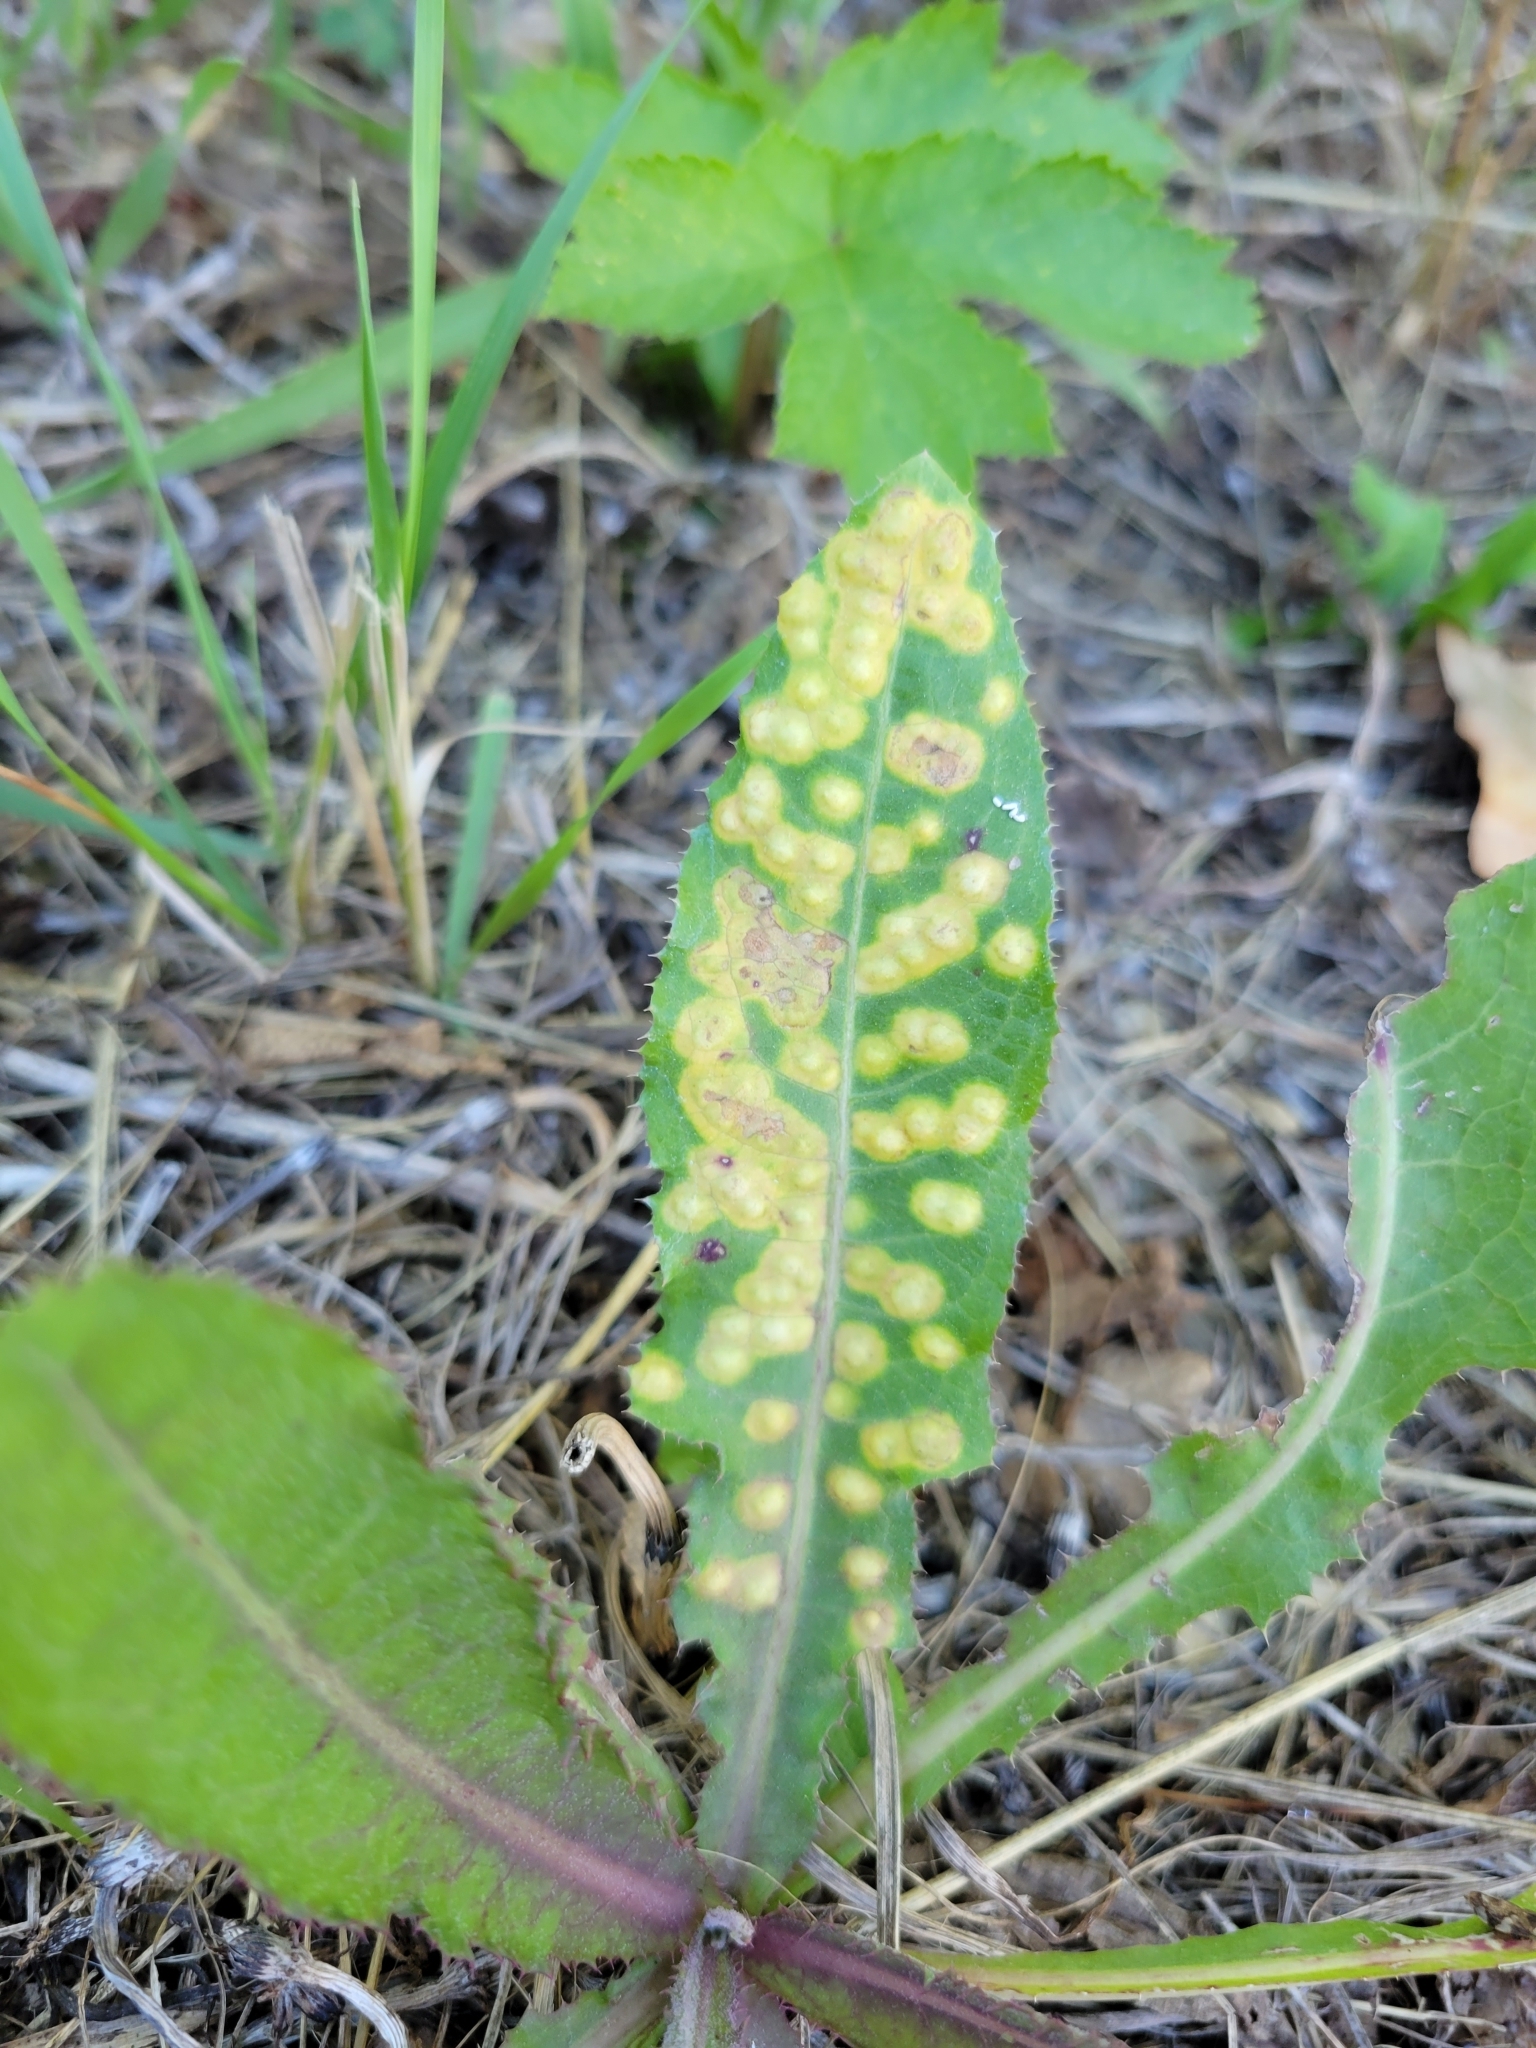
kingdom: Animalia
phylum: Arthropoda
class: Insecta
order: Diptera
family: Cecidomyiidae
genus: Cystiphora
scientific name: Cystiphora sonchi
